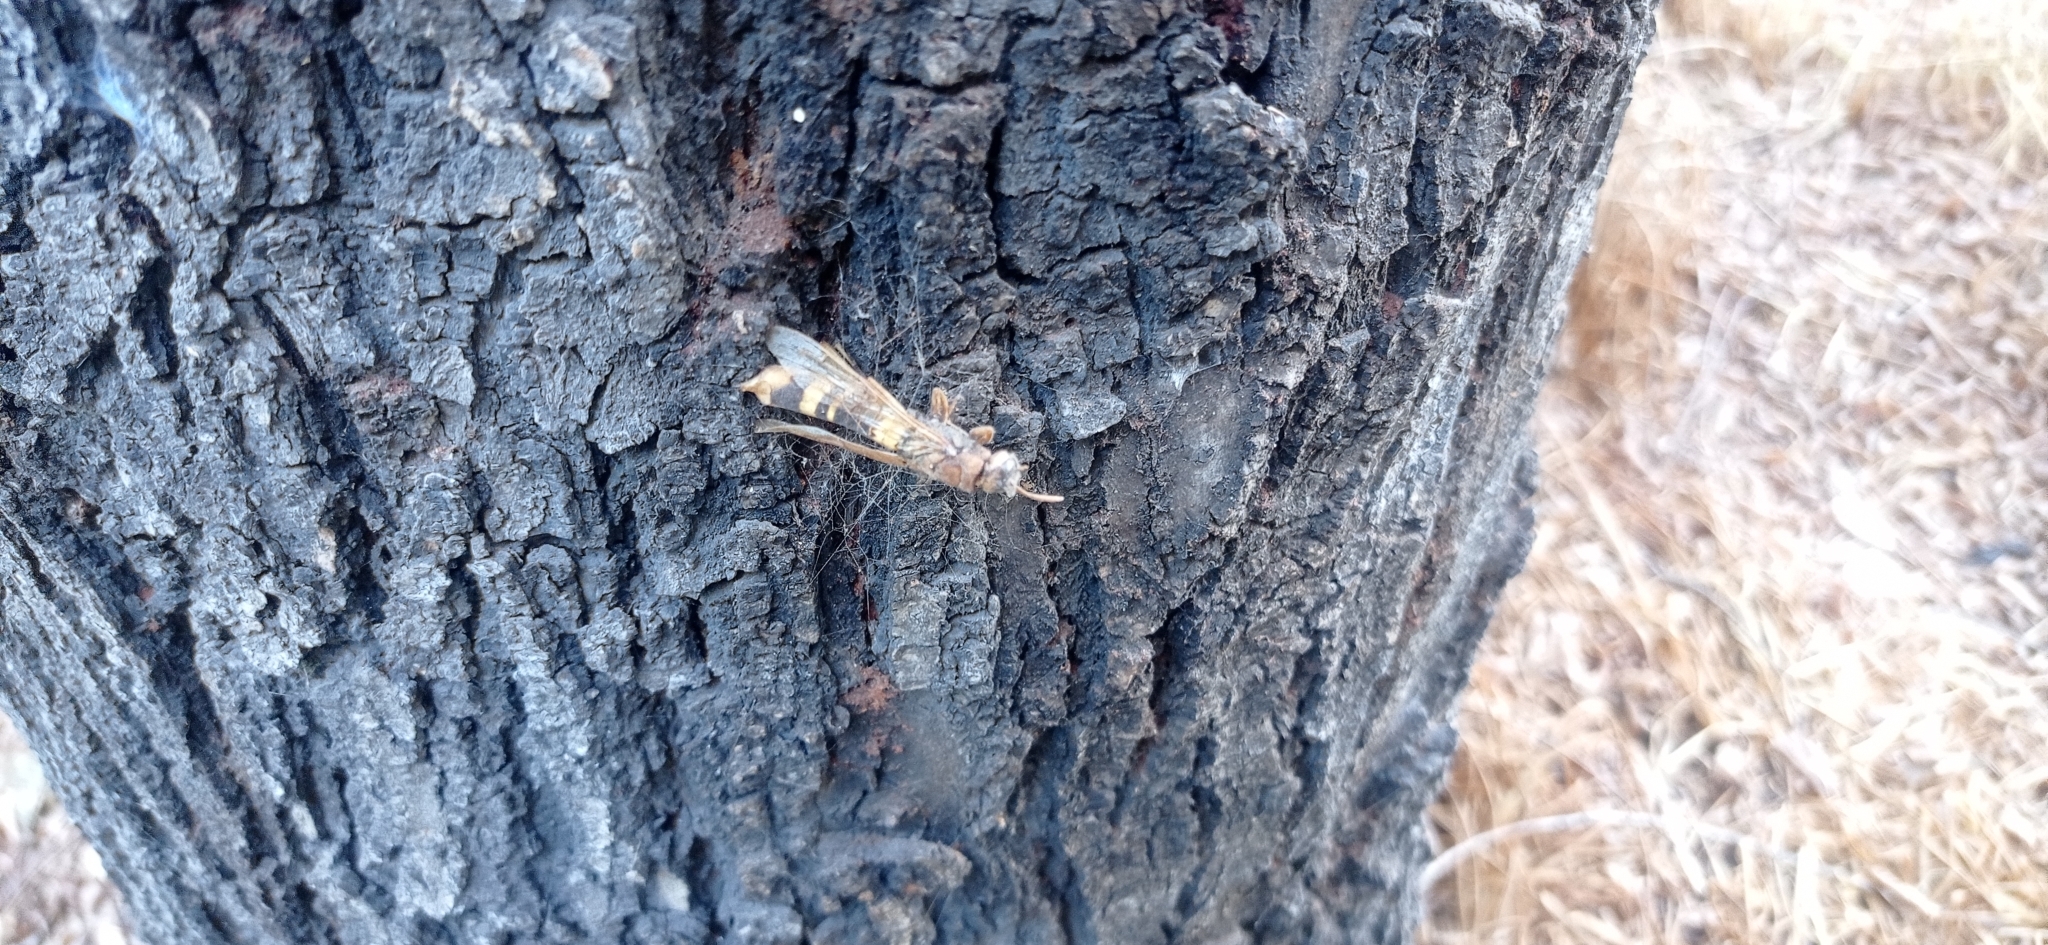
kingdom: Animalia
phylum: Arthropoda
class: Insecta
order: Hymenoptera
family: Siricidae
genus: Tremex
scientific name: Tremex fuscicornis
